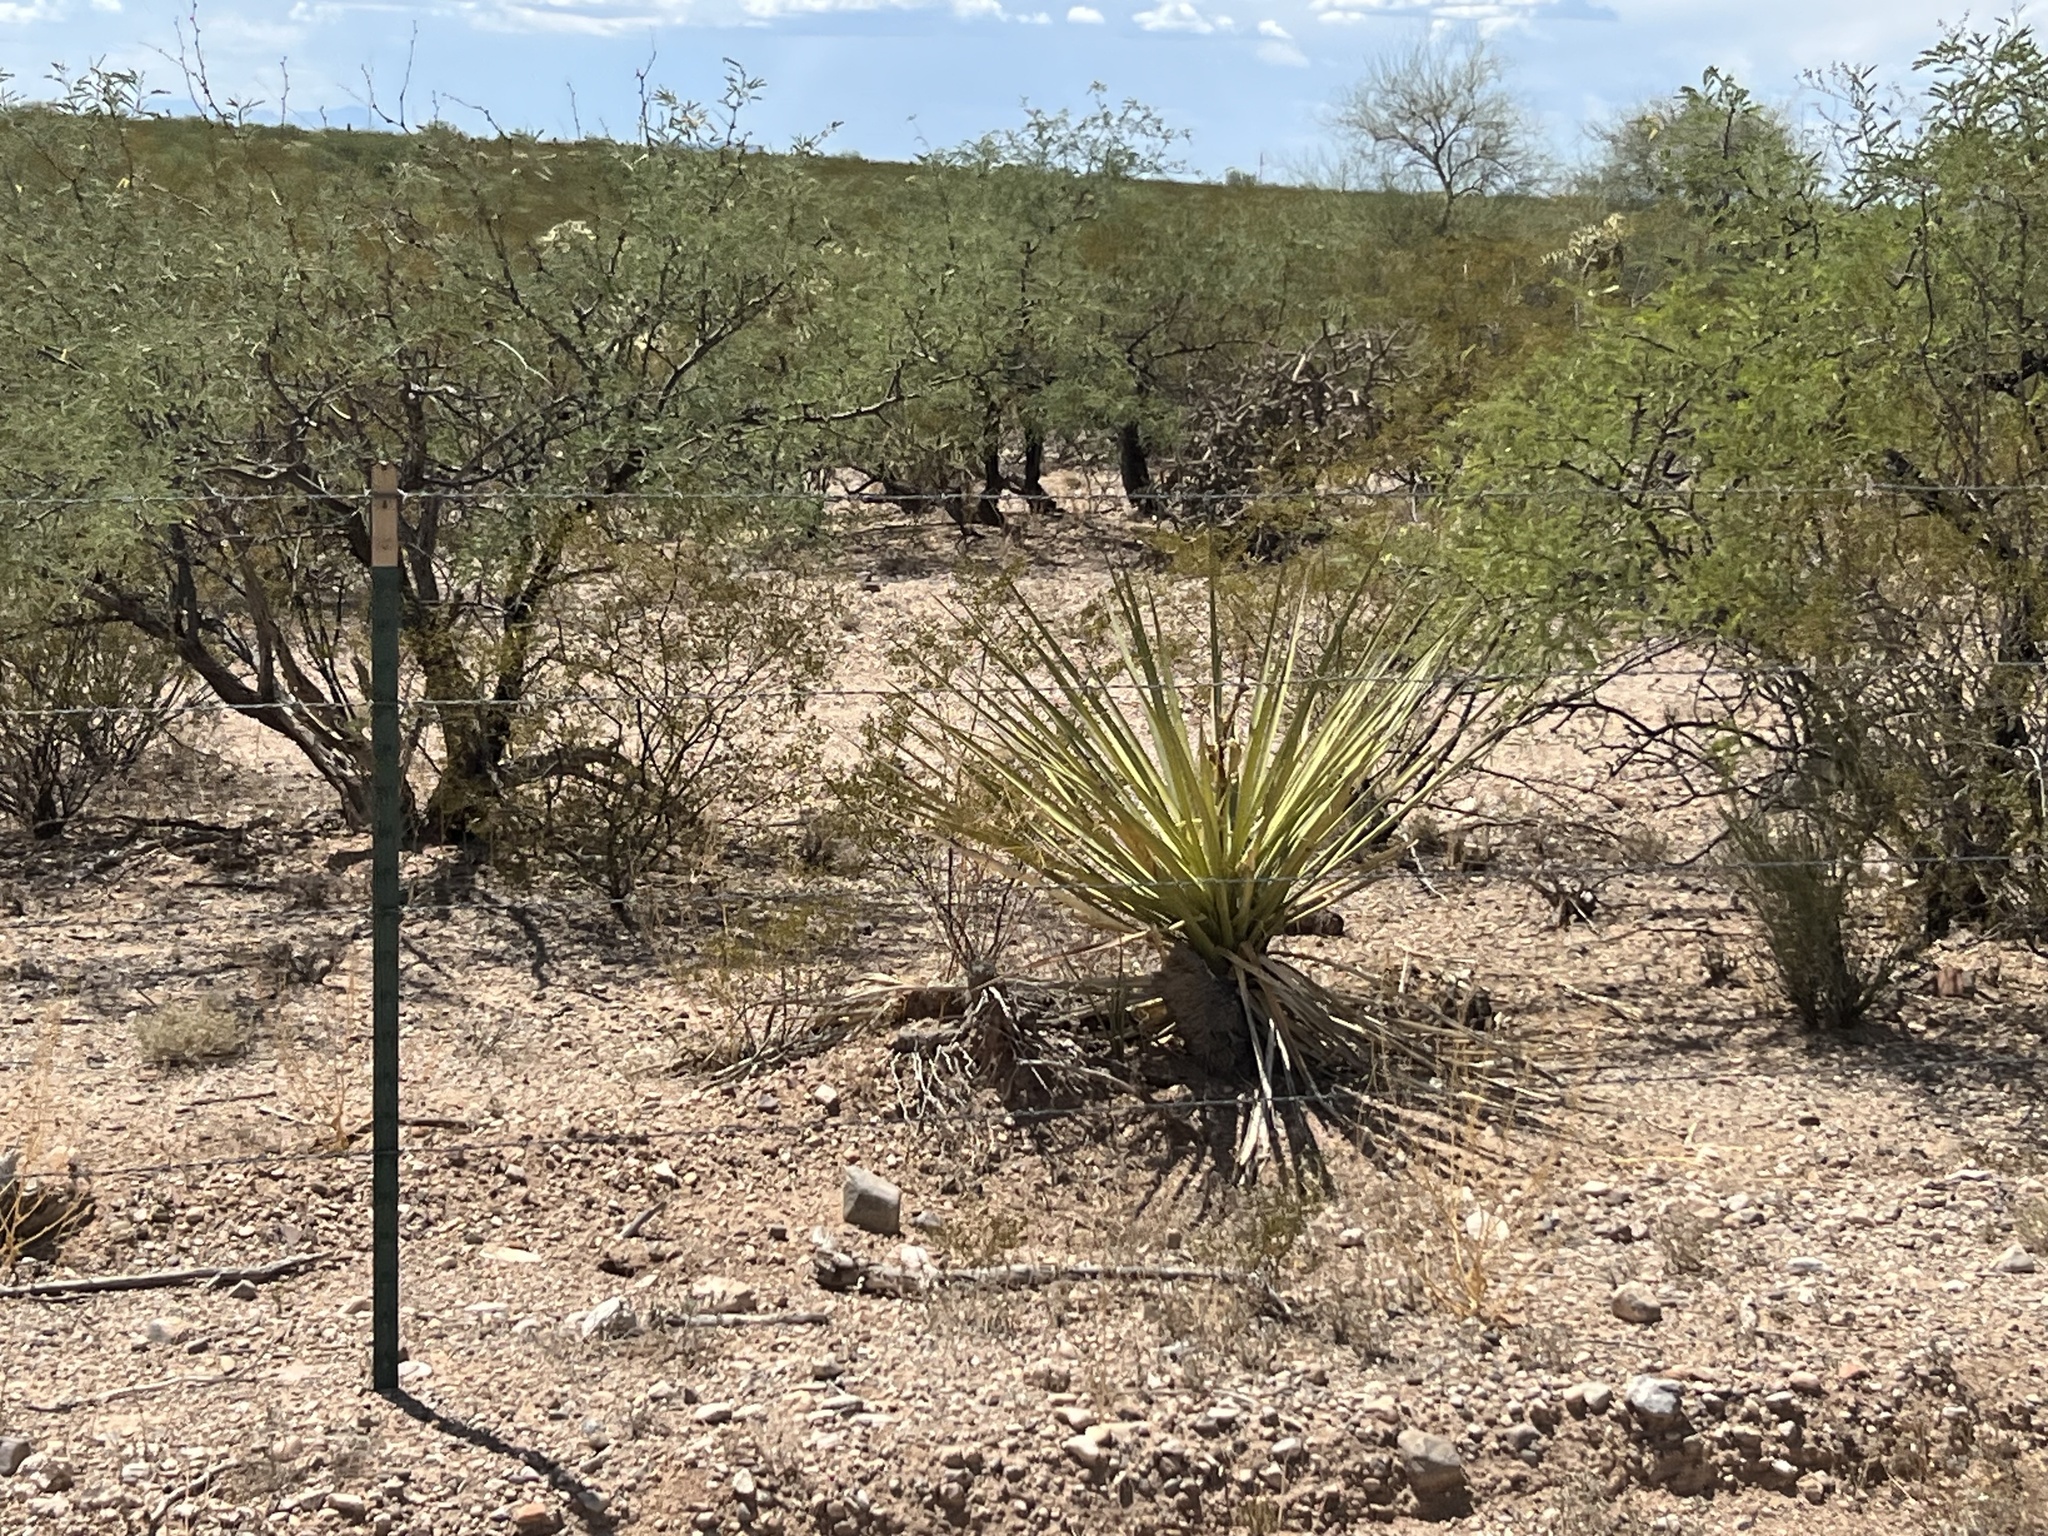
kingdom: Plantae
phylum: Tracheophyta
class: Liliopsida
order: Asparagales
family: Asparagaceae
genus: Yucca
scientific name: Yucca baccata
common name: Banana yucca
